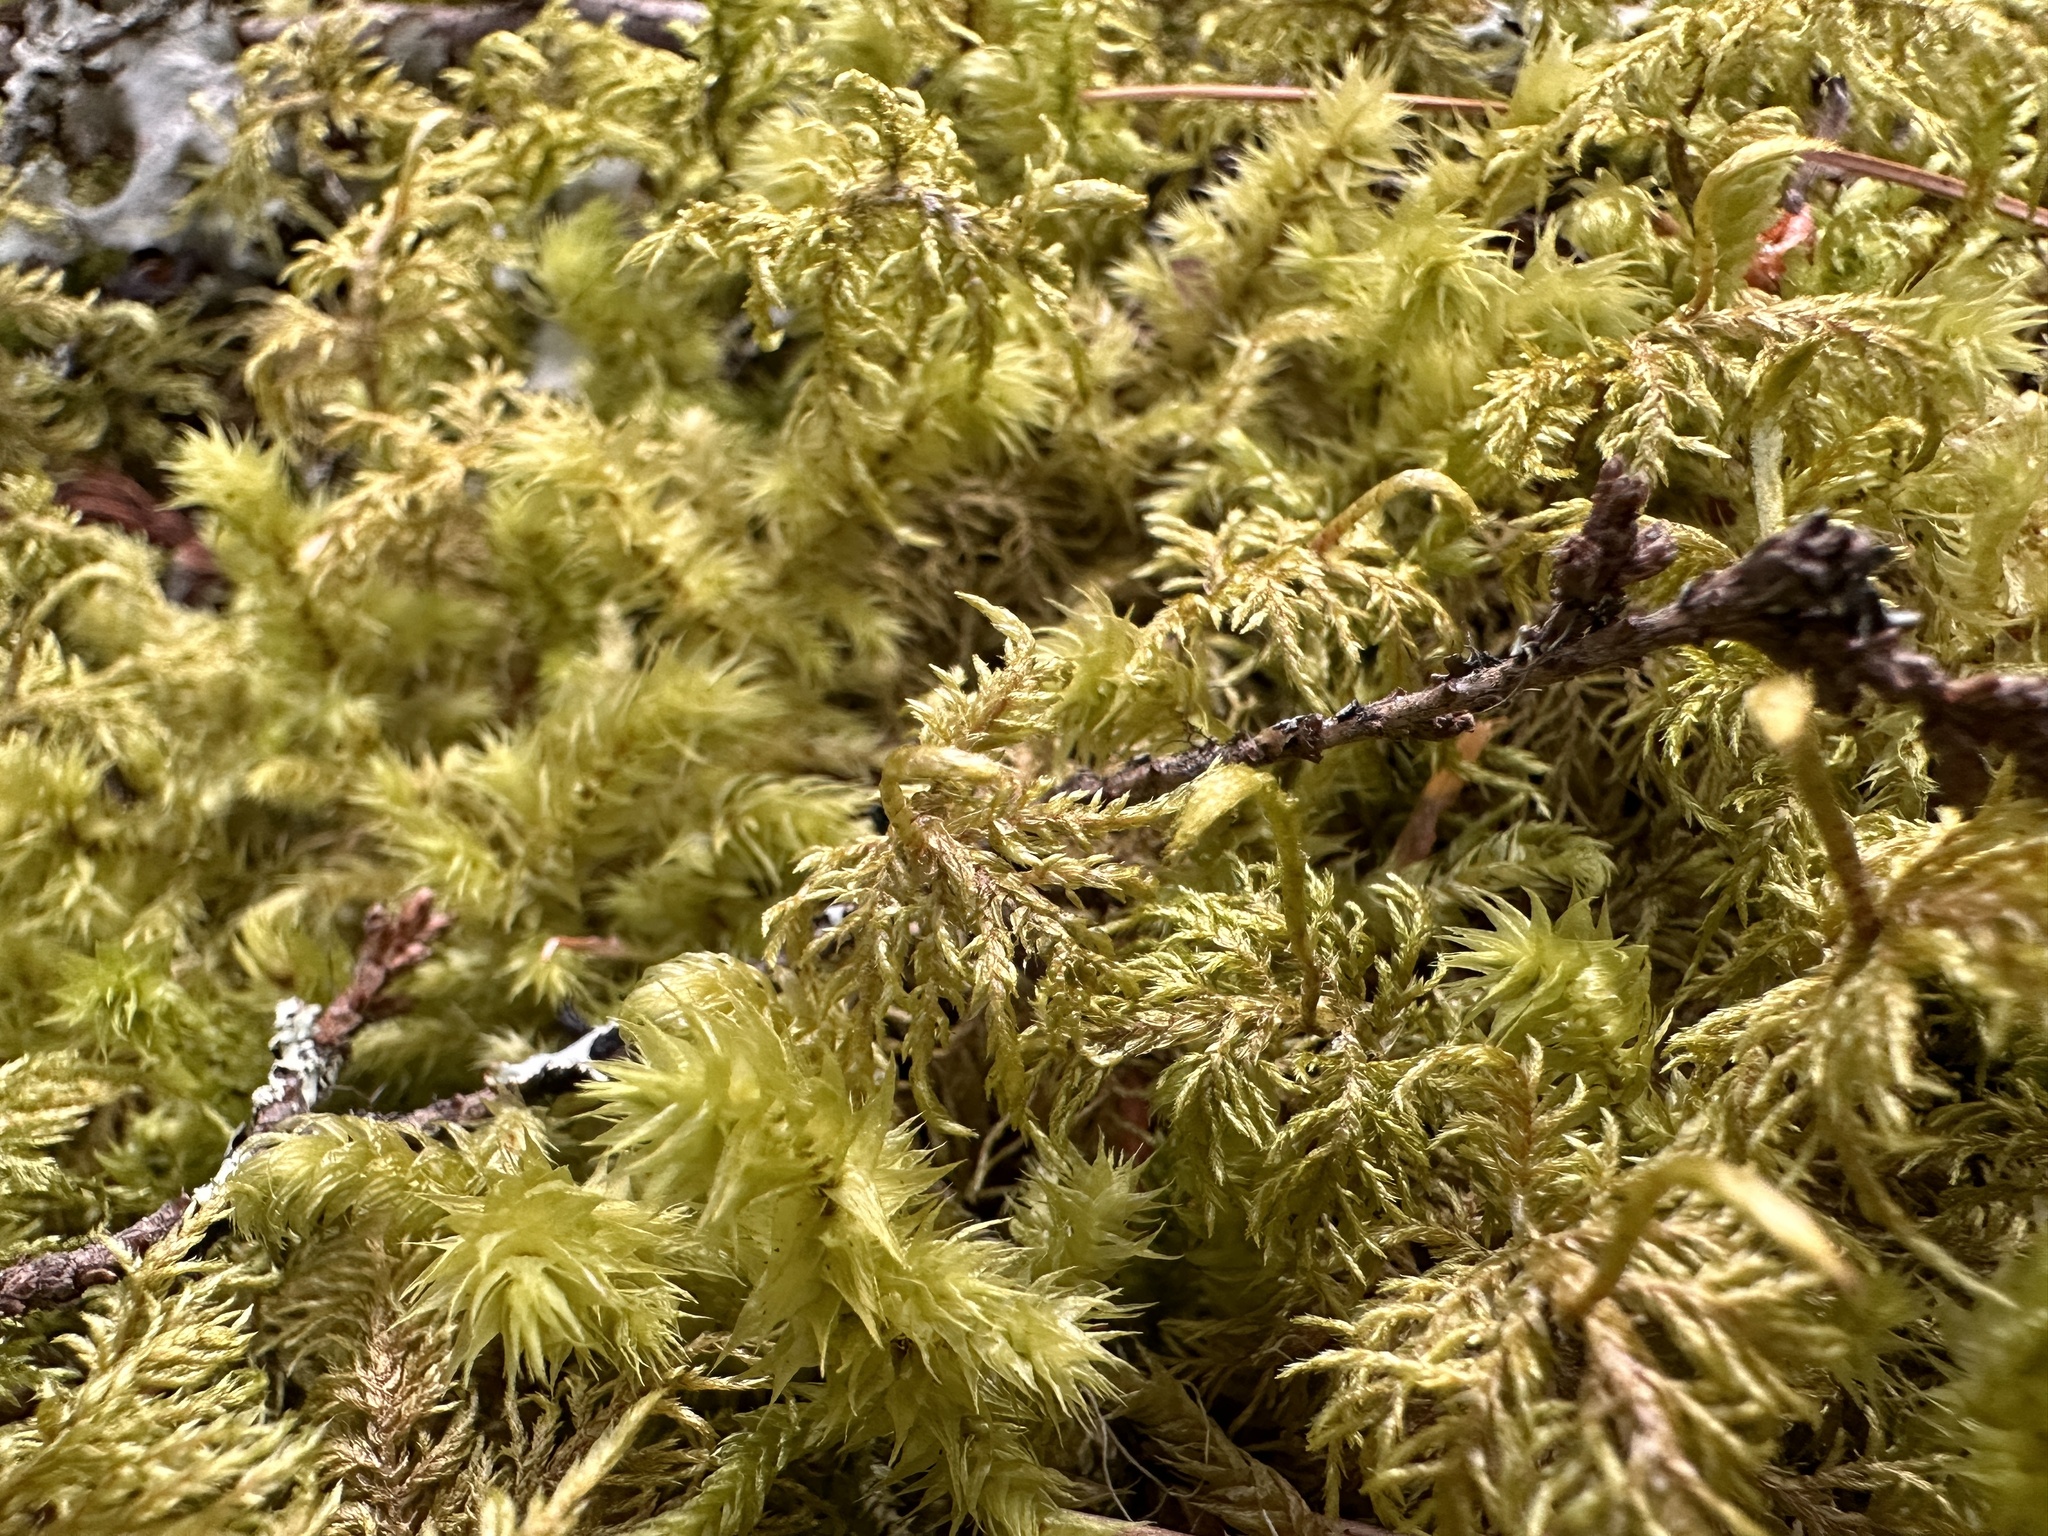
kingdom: Plantae
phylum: Bryophyta
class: Bryopsida
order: Hypnales
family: Hylocomiaceae
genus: Hylocomium
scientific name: Hylocomium splendens
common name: Stairstep moss
